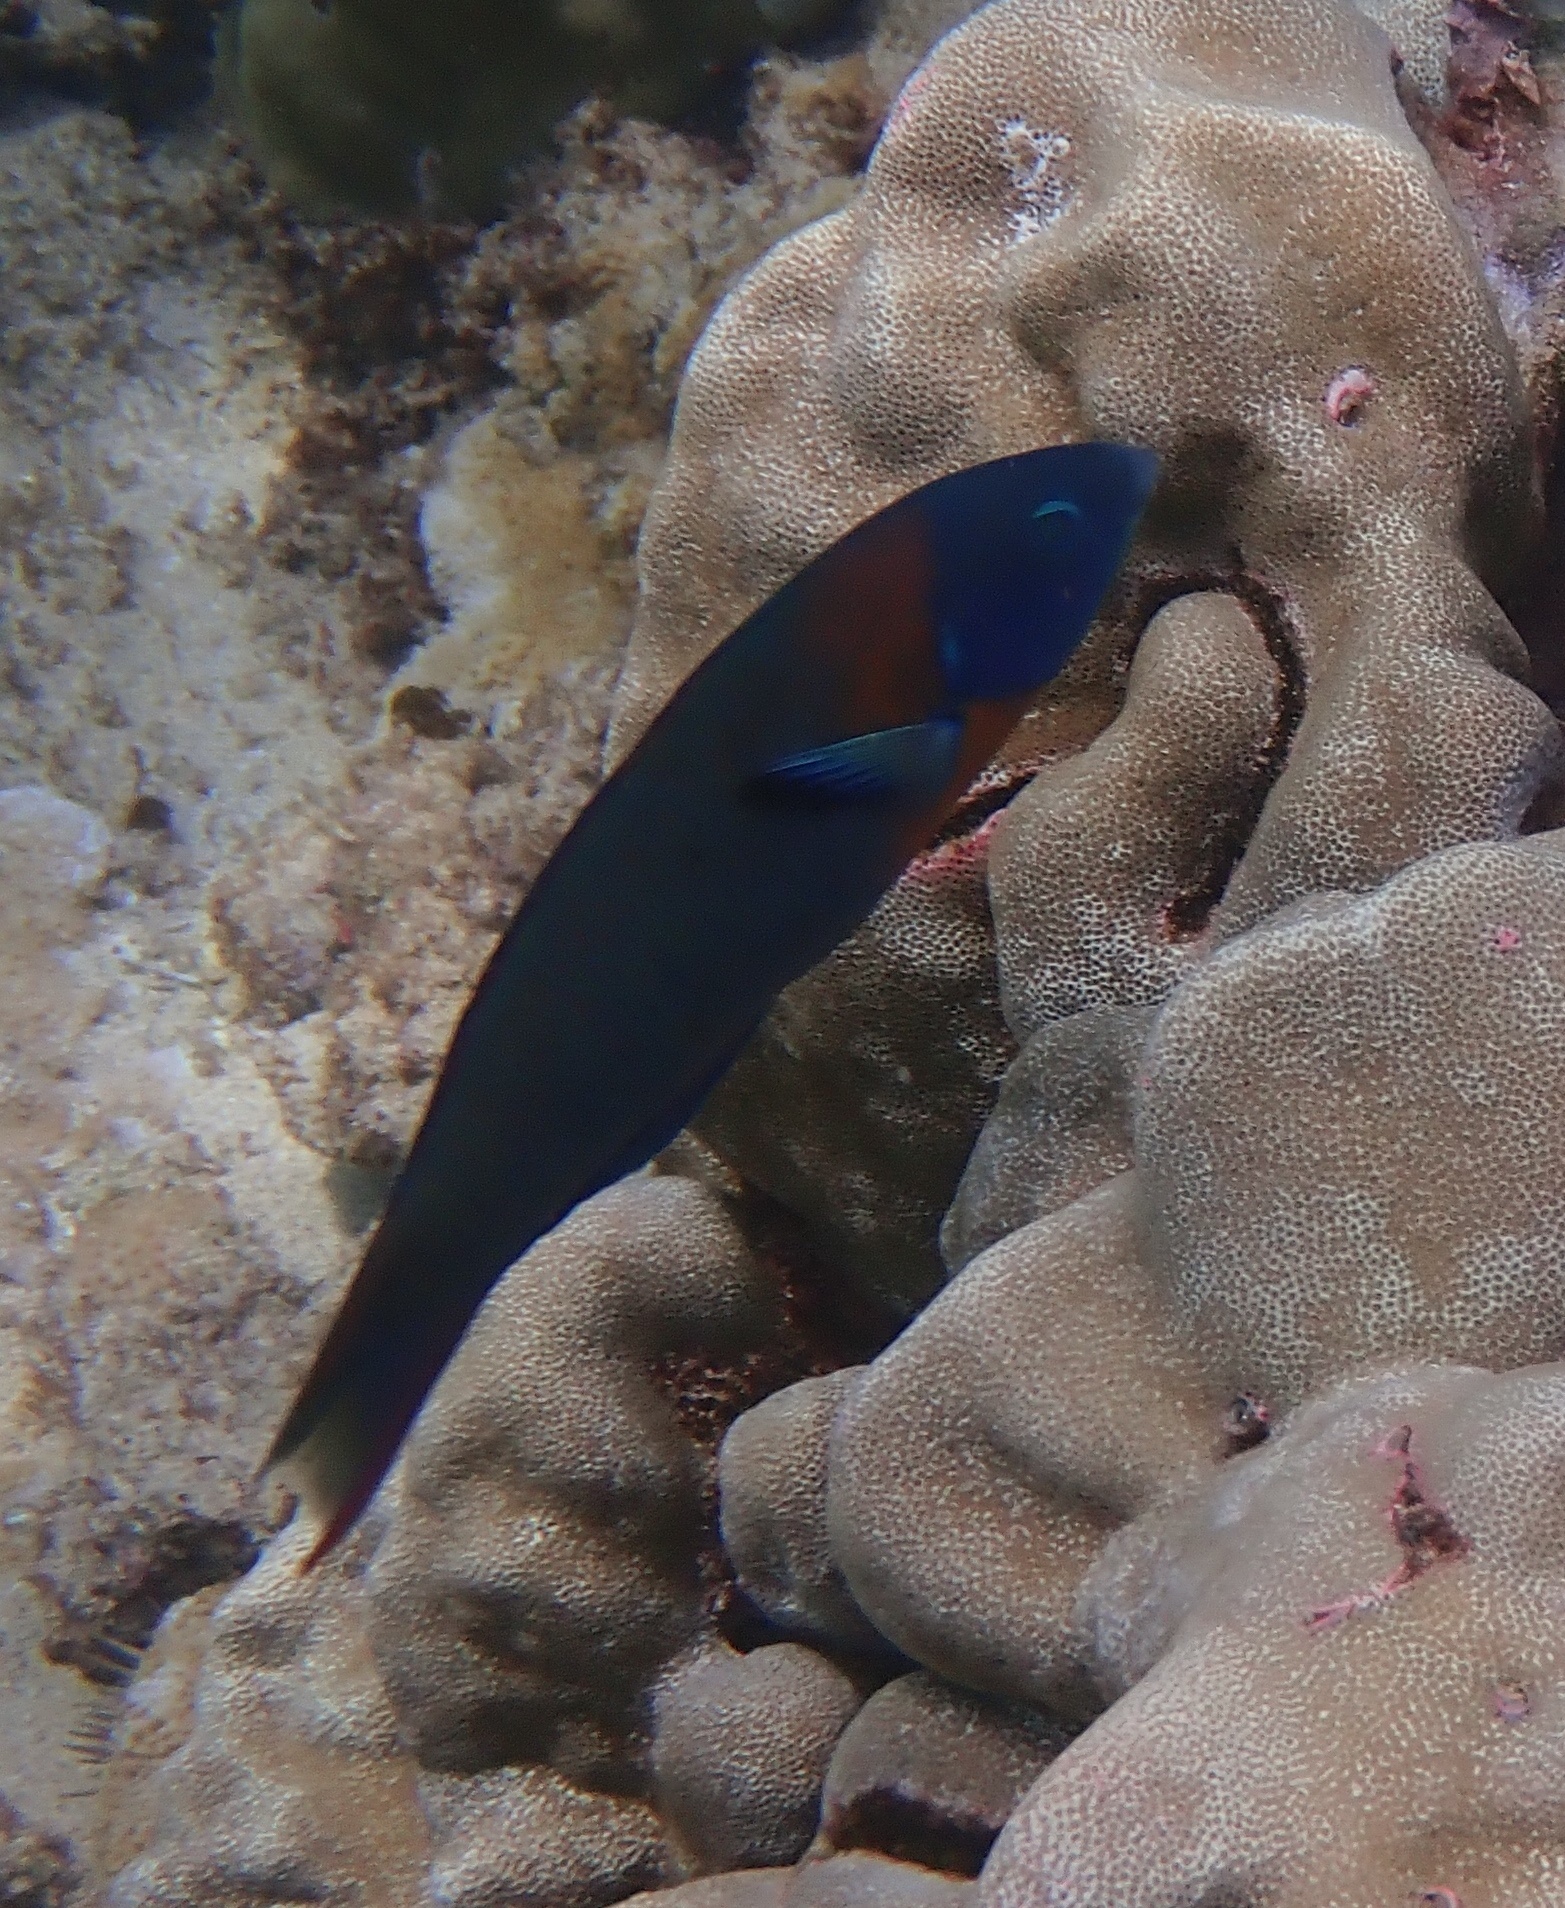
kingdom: Animalia
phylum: Chordata
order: Perciformes
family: Labridae
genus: Thalassoma
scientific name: Thalassoma duperrey
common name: Saddle wrasse
